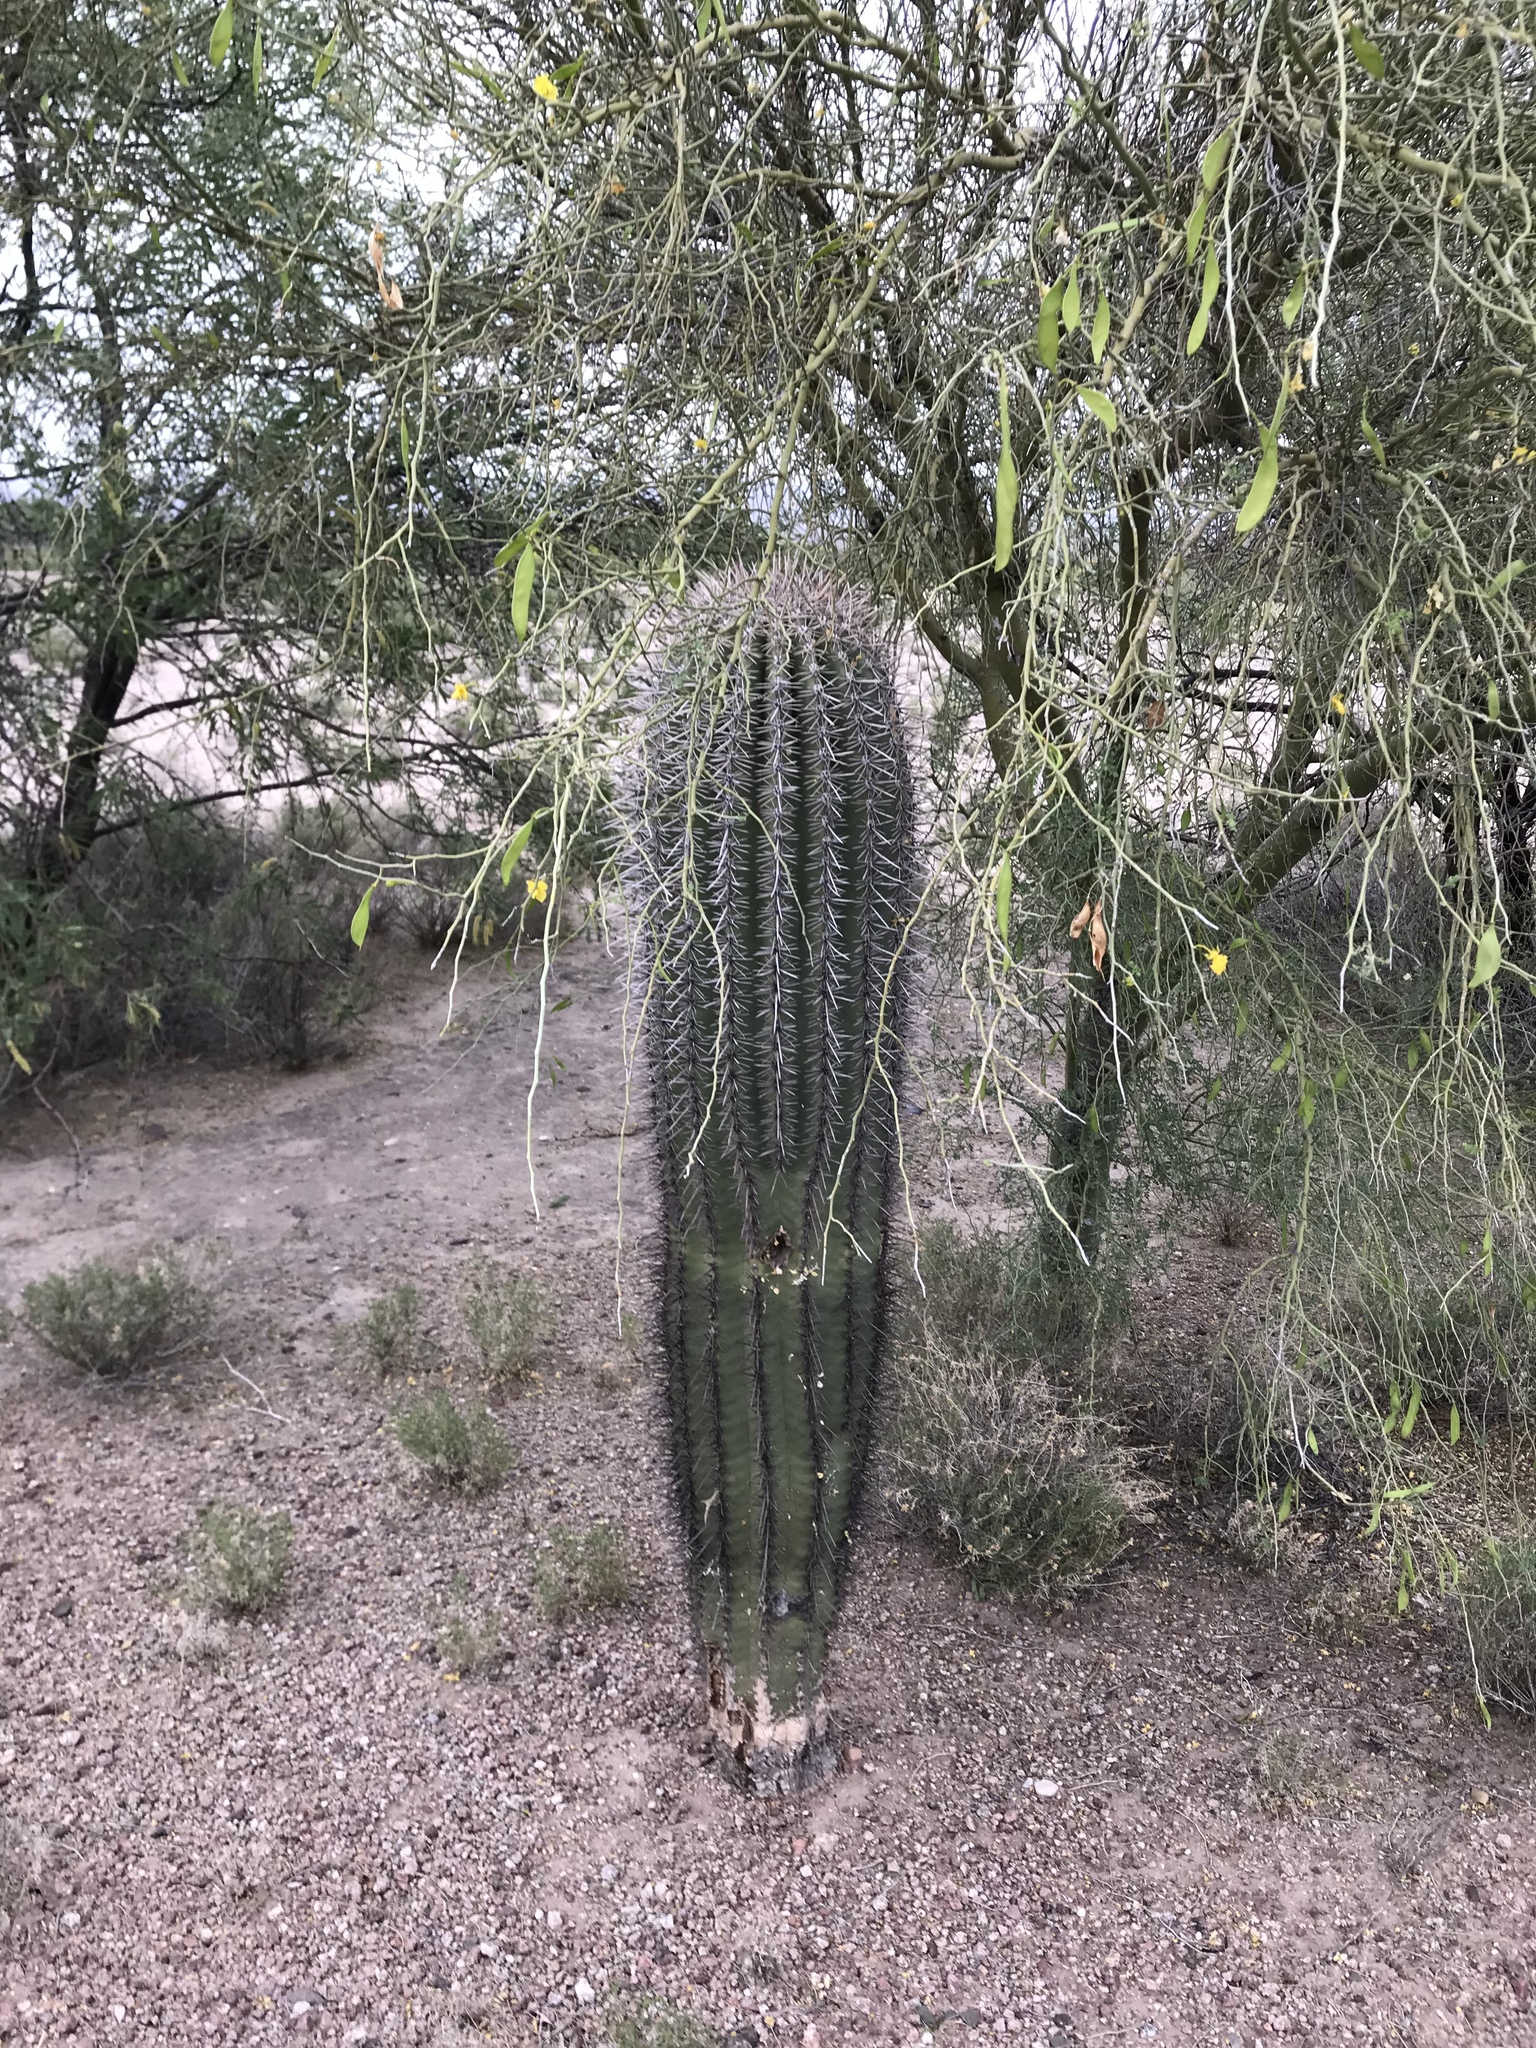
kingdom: Plantae
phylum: Tracheophyta
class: Magnoliopsida
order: Caryophyllales
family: Cactaceae
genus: Carnegiea
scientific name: Carnegiea gigantea
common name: Saguaro
